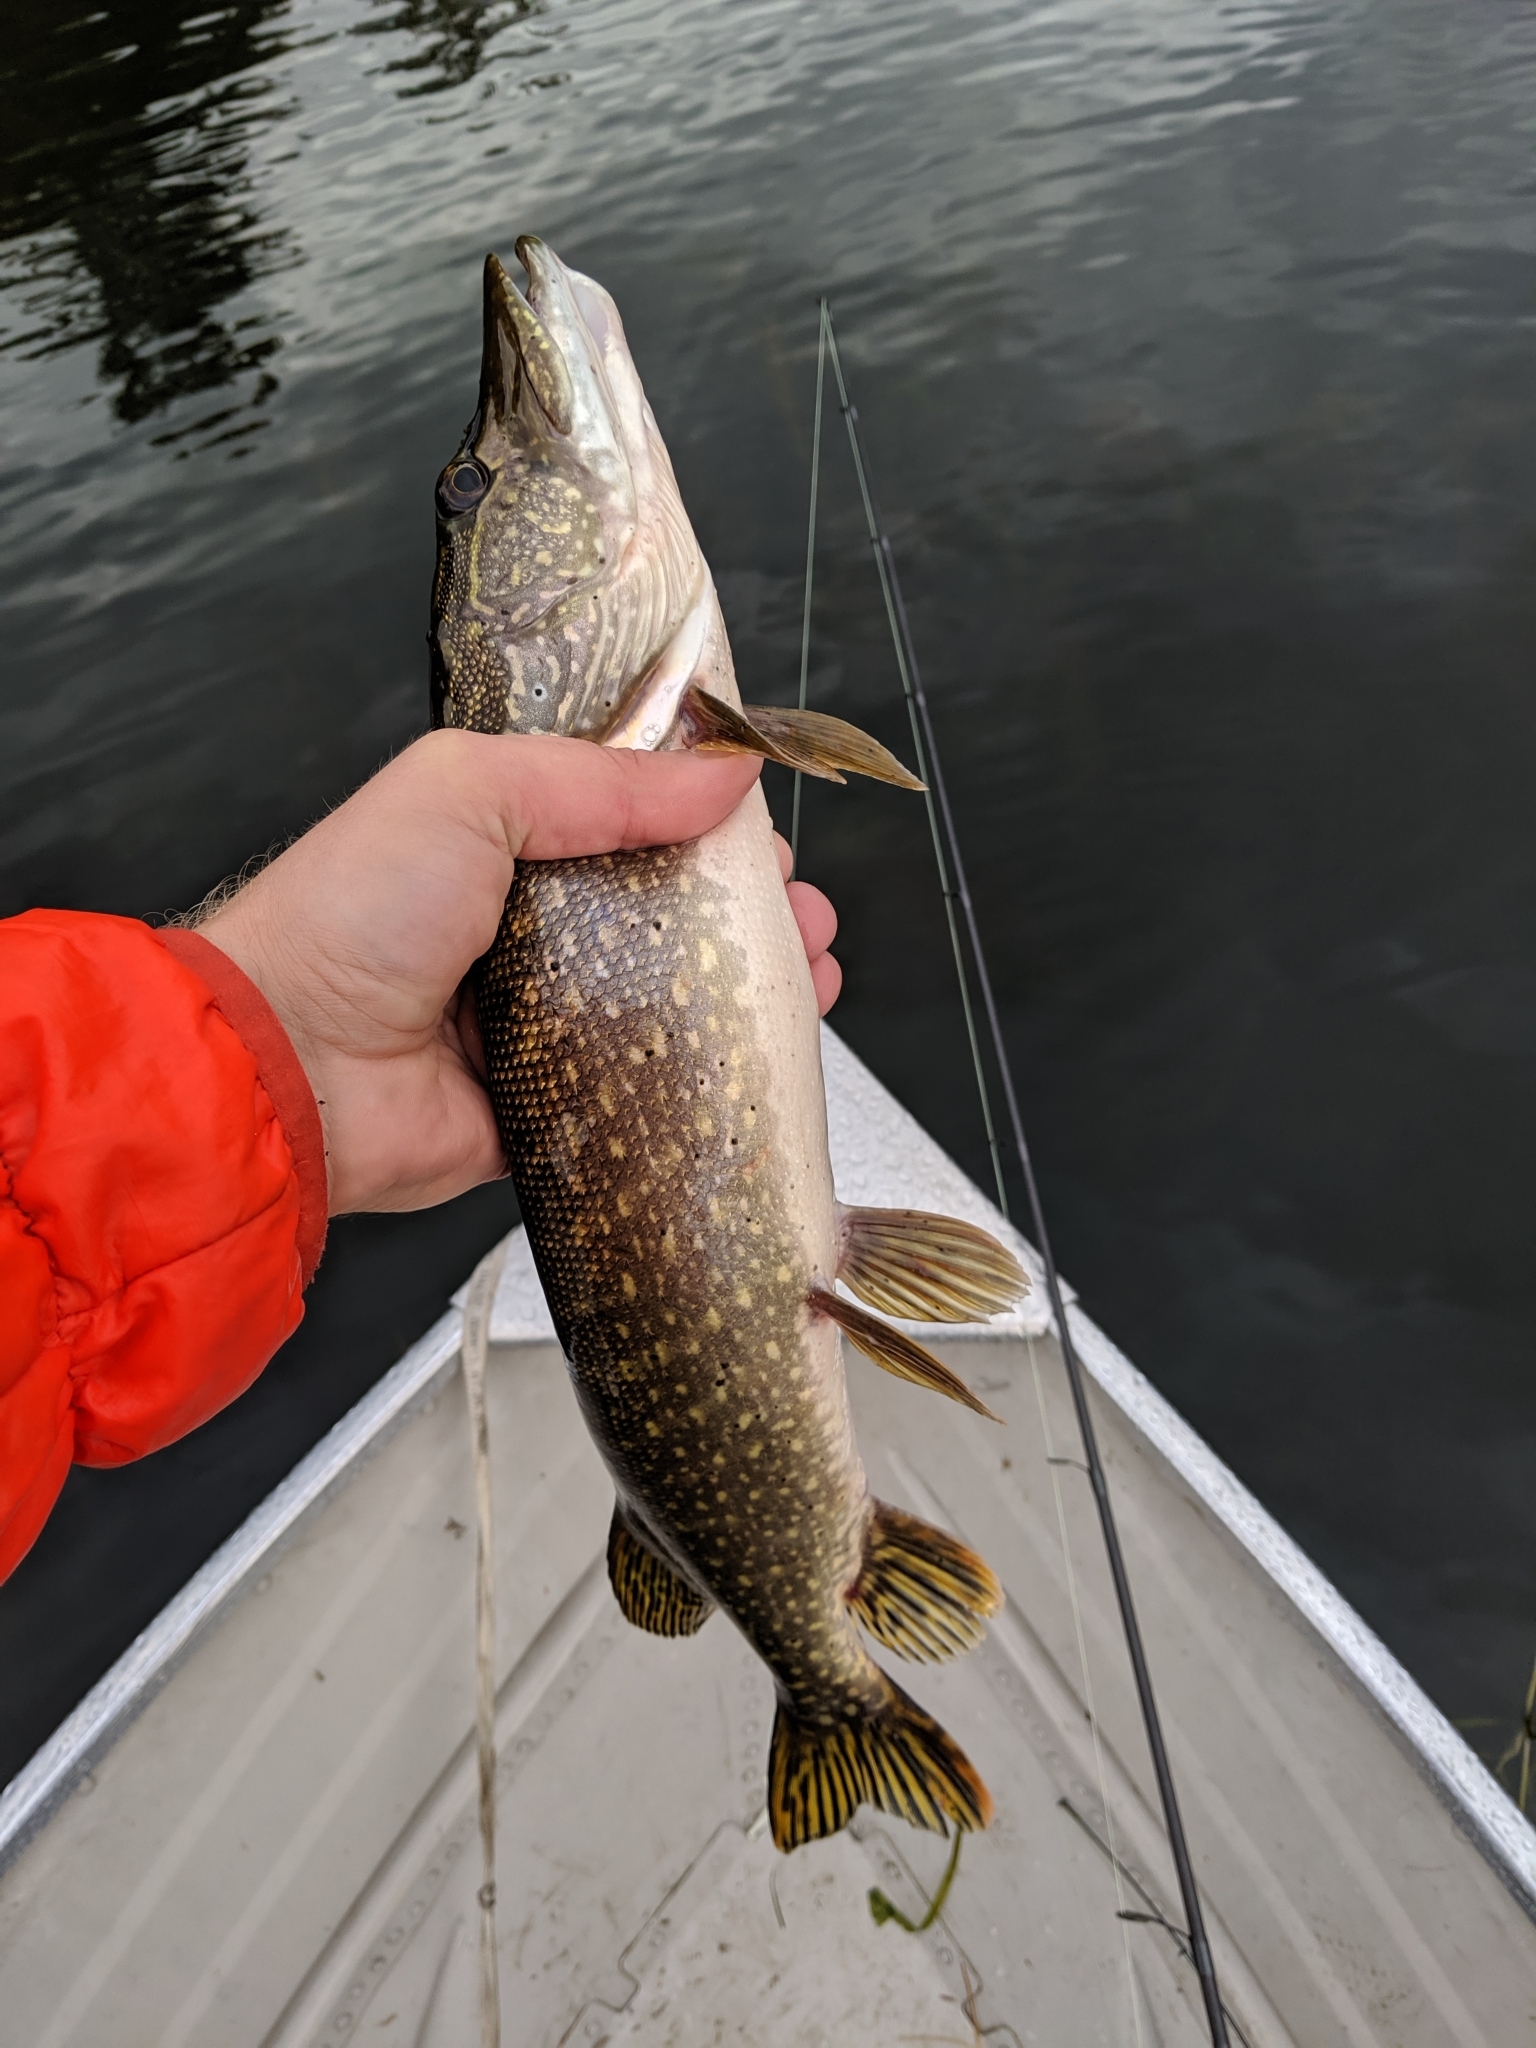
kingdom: Animalia
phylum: Chordata
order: Esociformes
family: Esocidae
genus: Esox
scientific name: Esox lucius
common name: Northern pike
